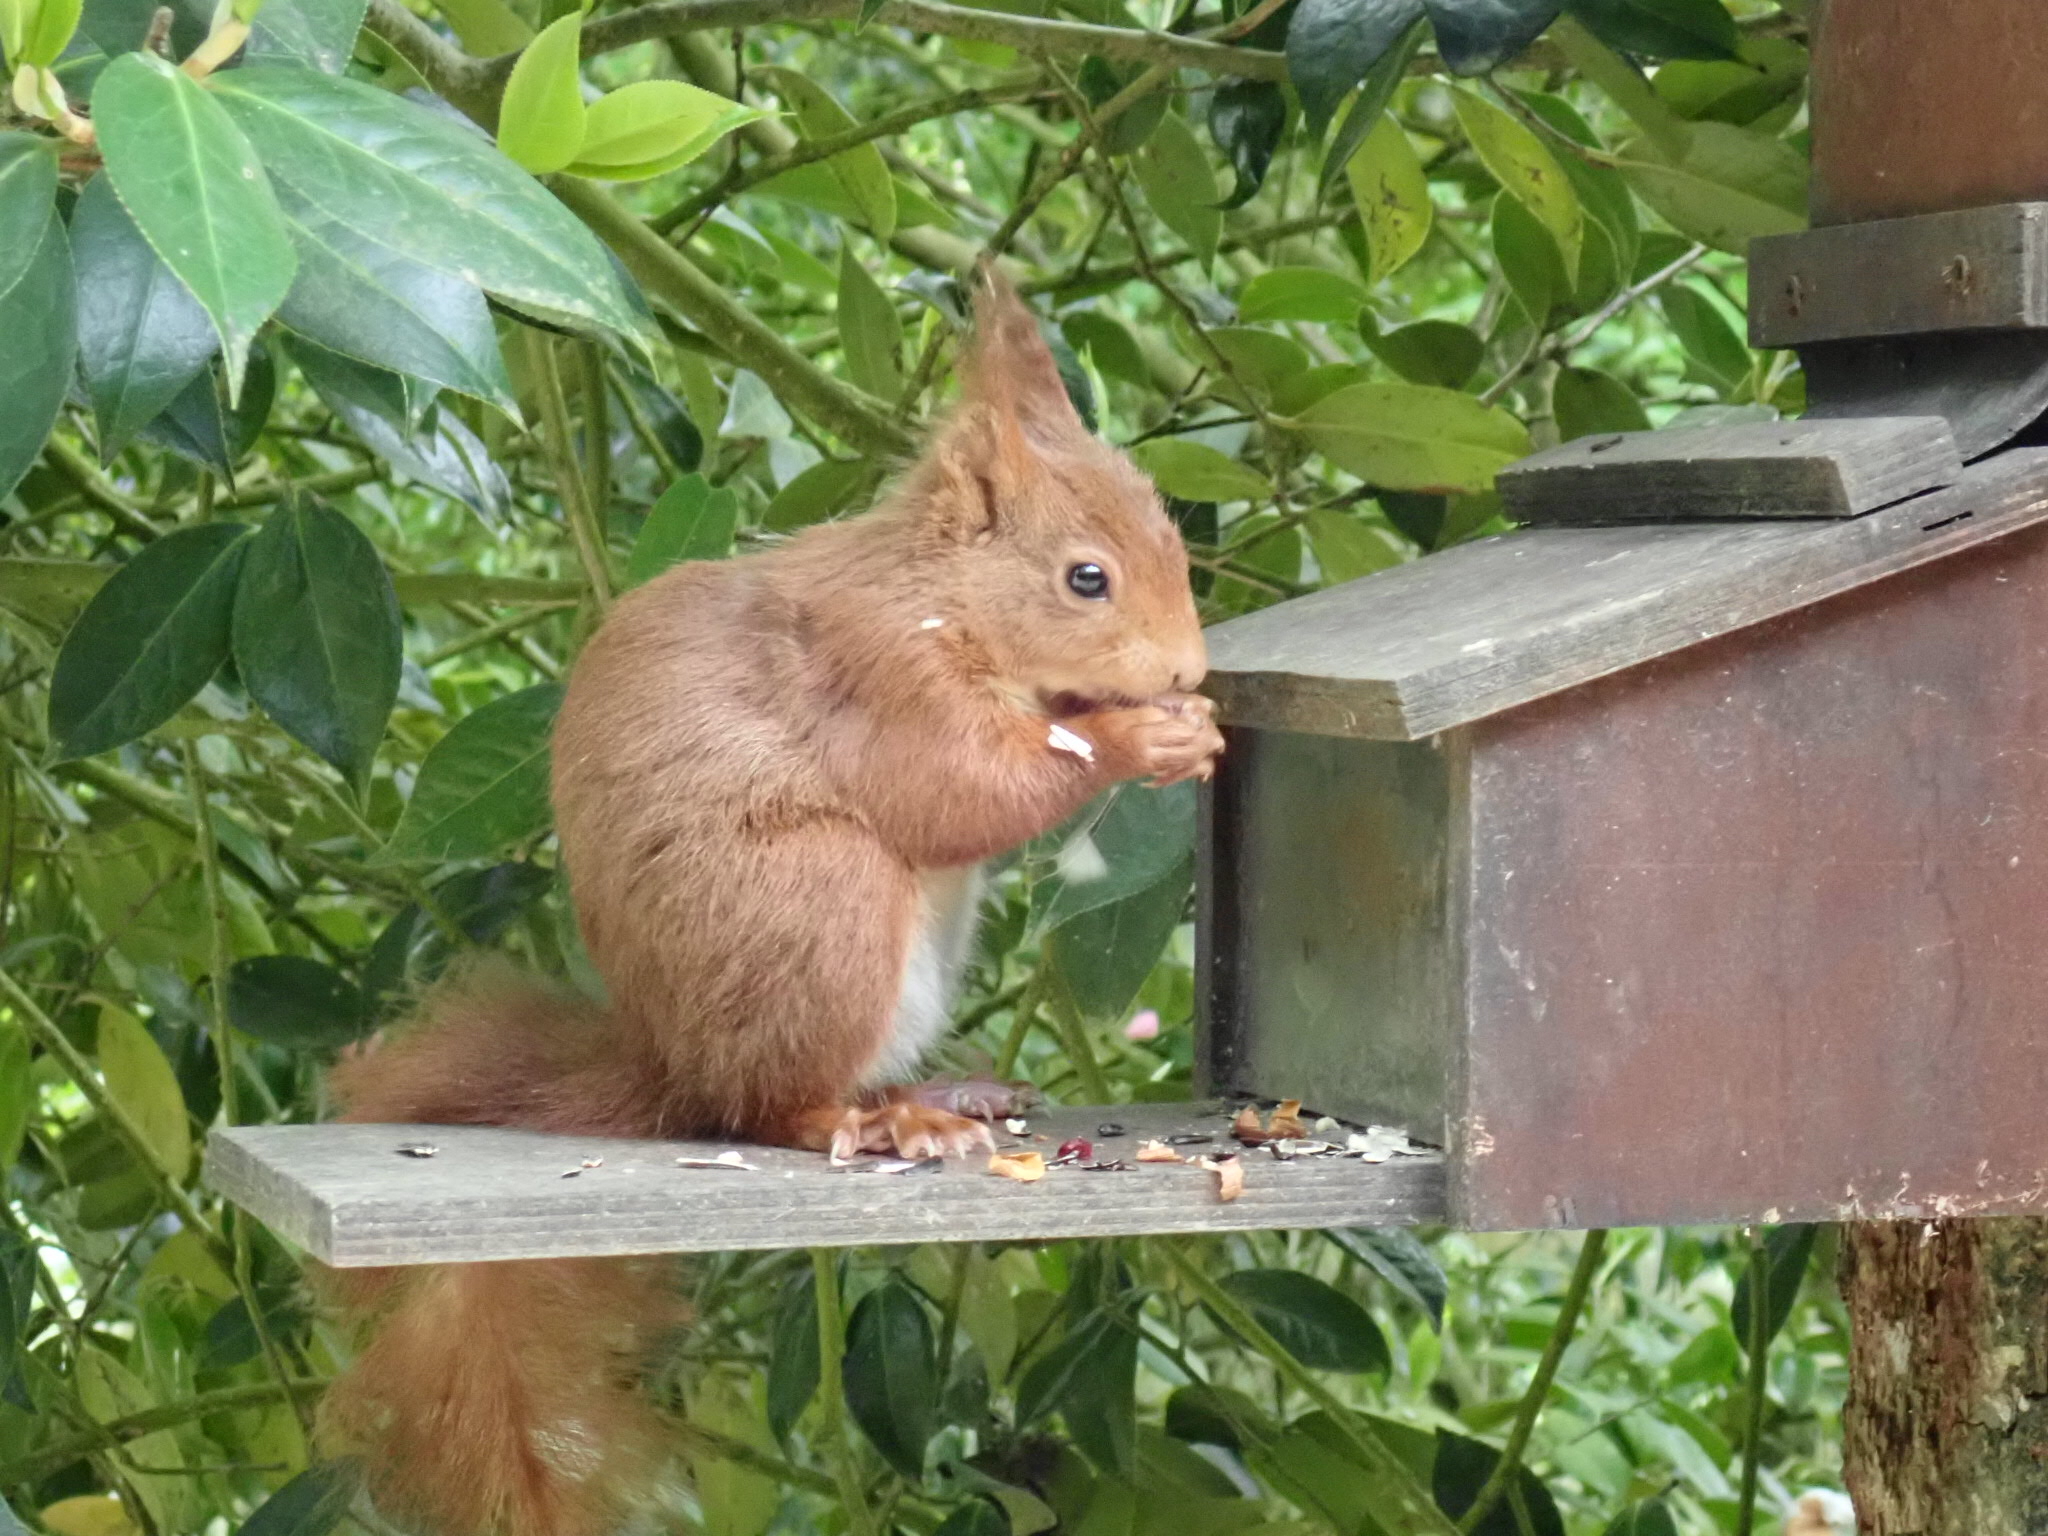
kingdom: Animalia
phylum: Chordata
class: Mammalia
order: Rodentia
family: Sciuridae
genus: Sciurus
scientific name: Sciurus vulgaris
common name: Eurasian red squirrel
